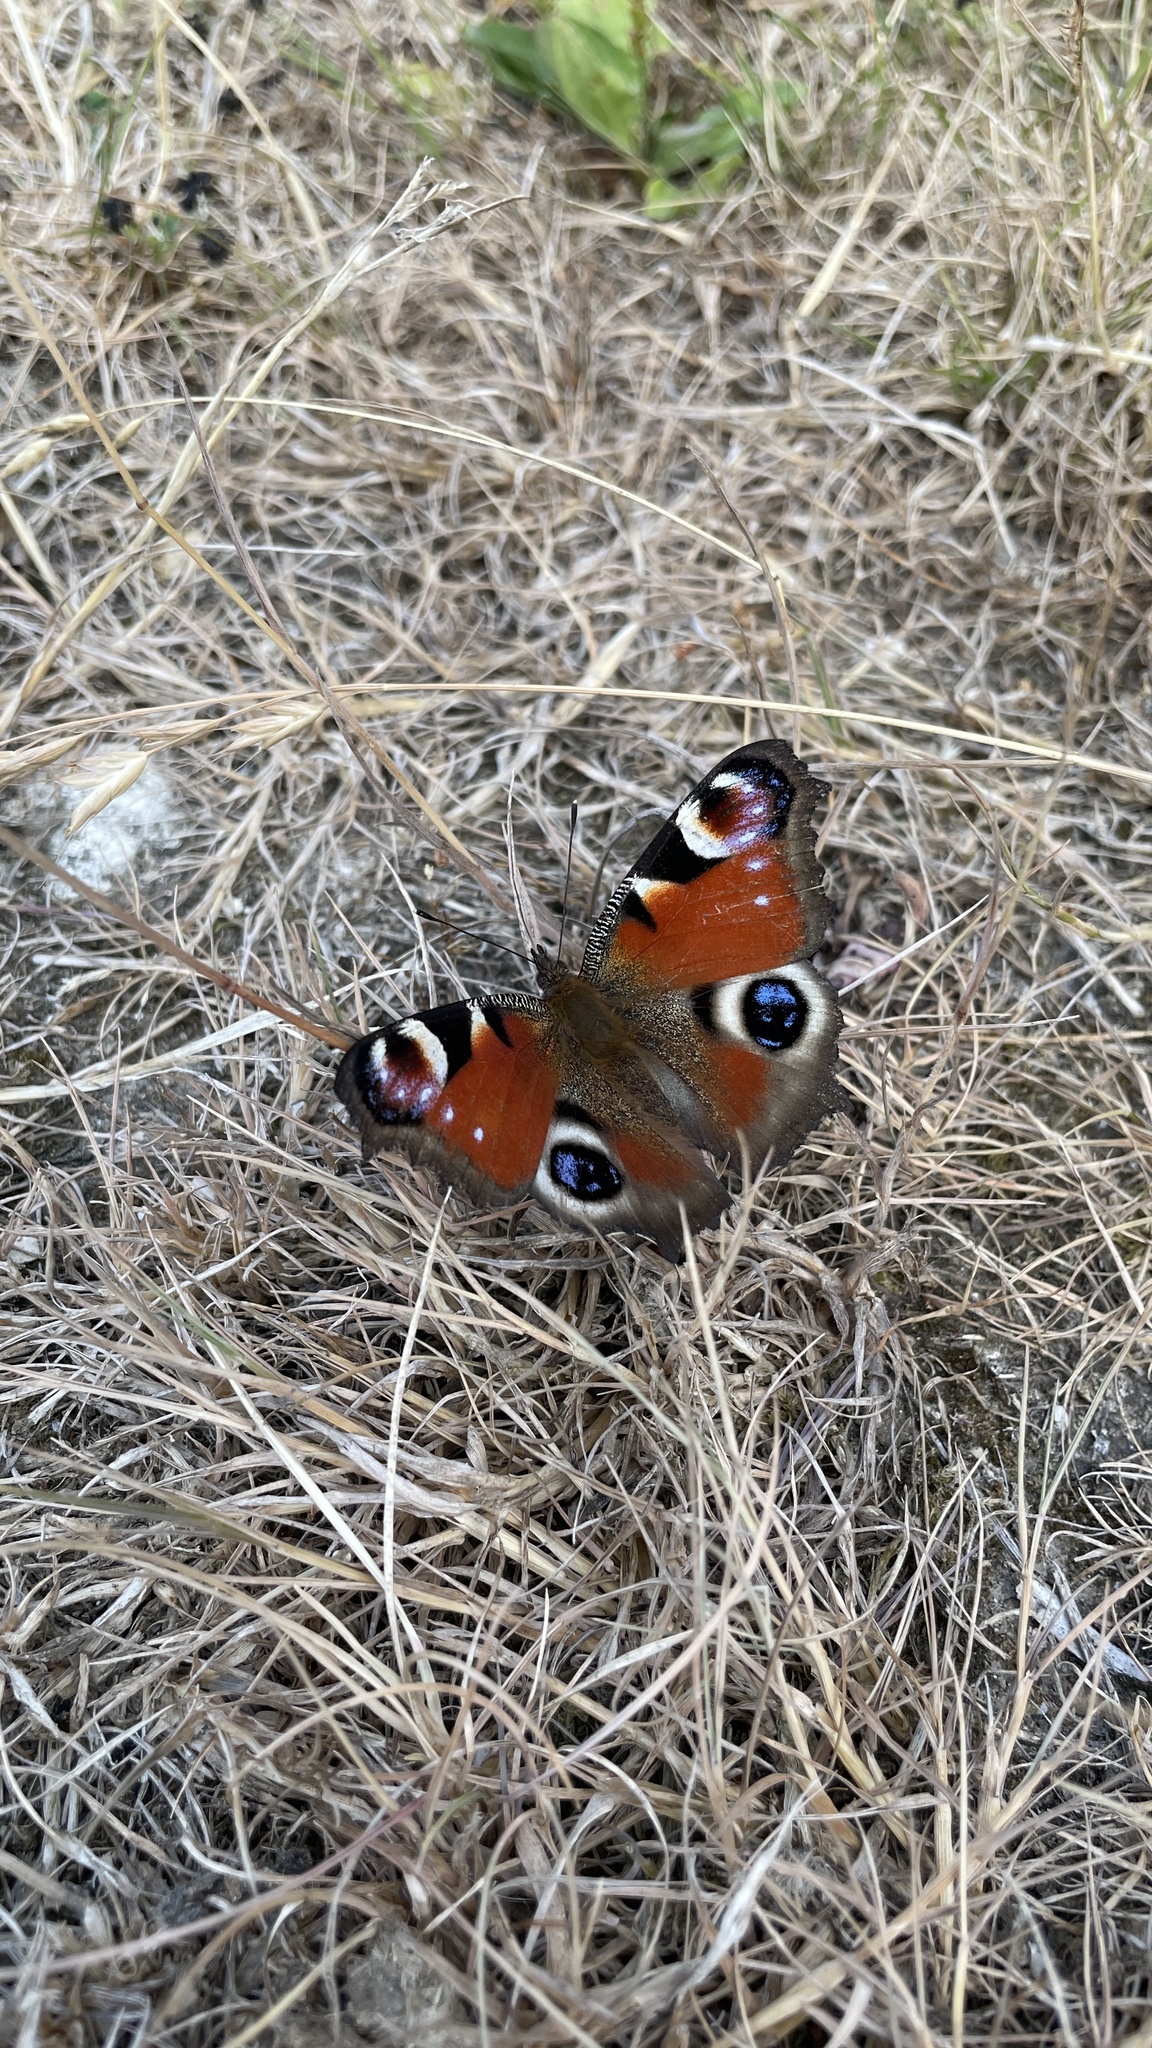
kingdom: Animalia
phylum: Arthropoda
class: Insecta
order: Lepidoptera
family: Nymphalidae
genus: Aglais
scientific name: Aglais io
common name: Peacock
